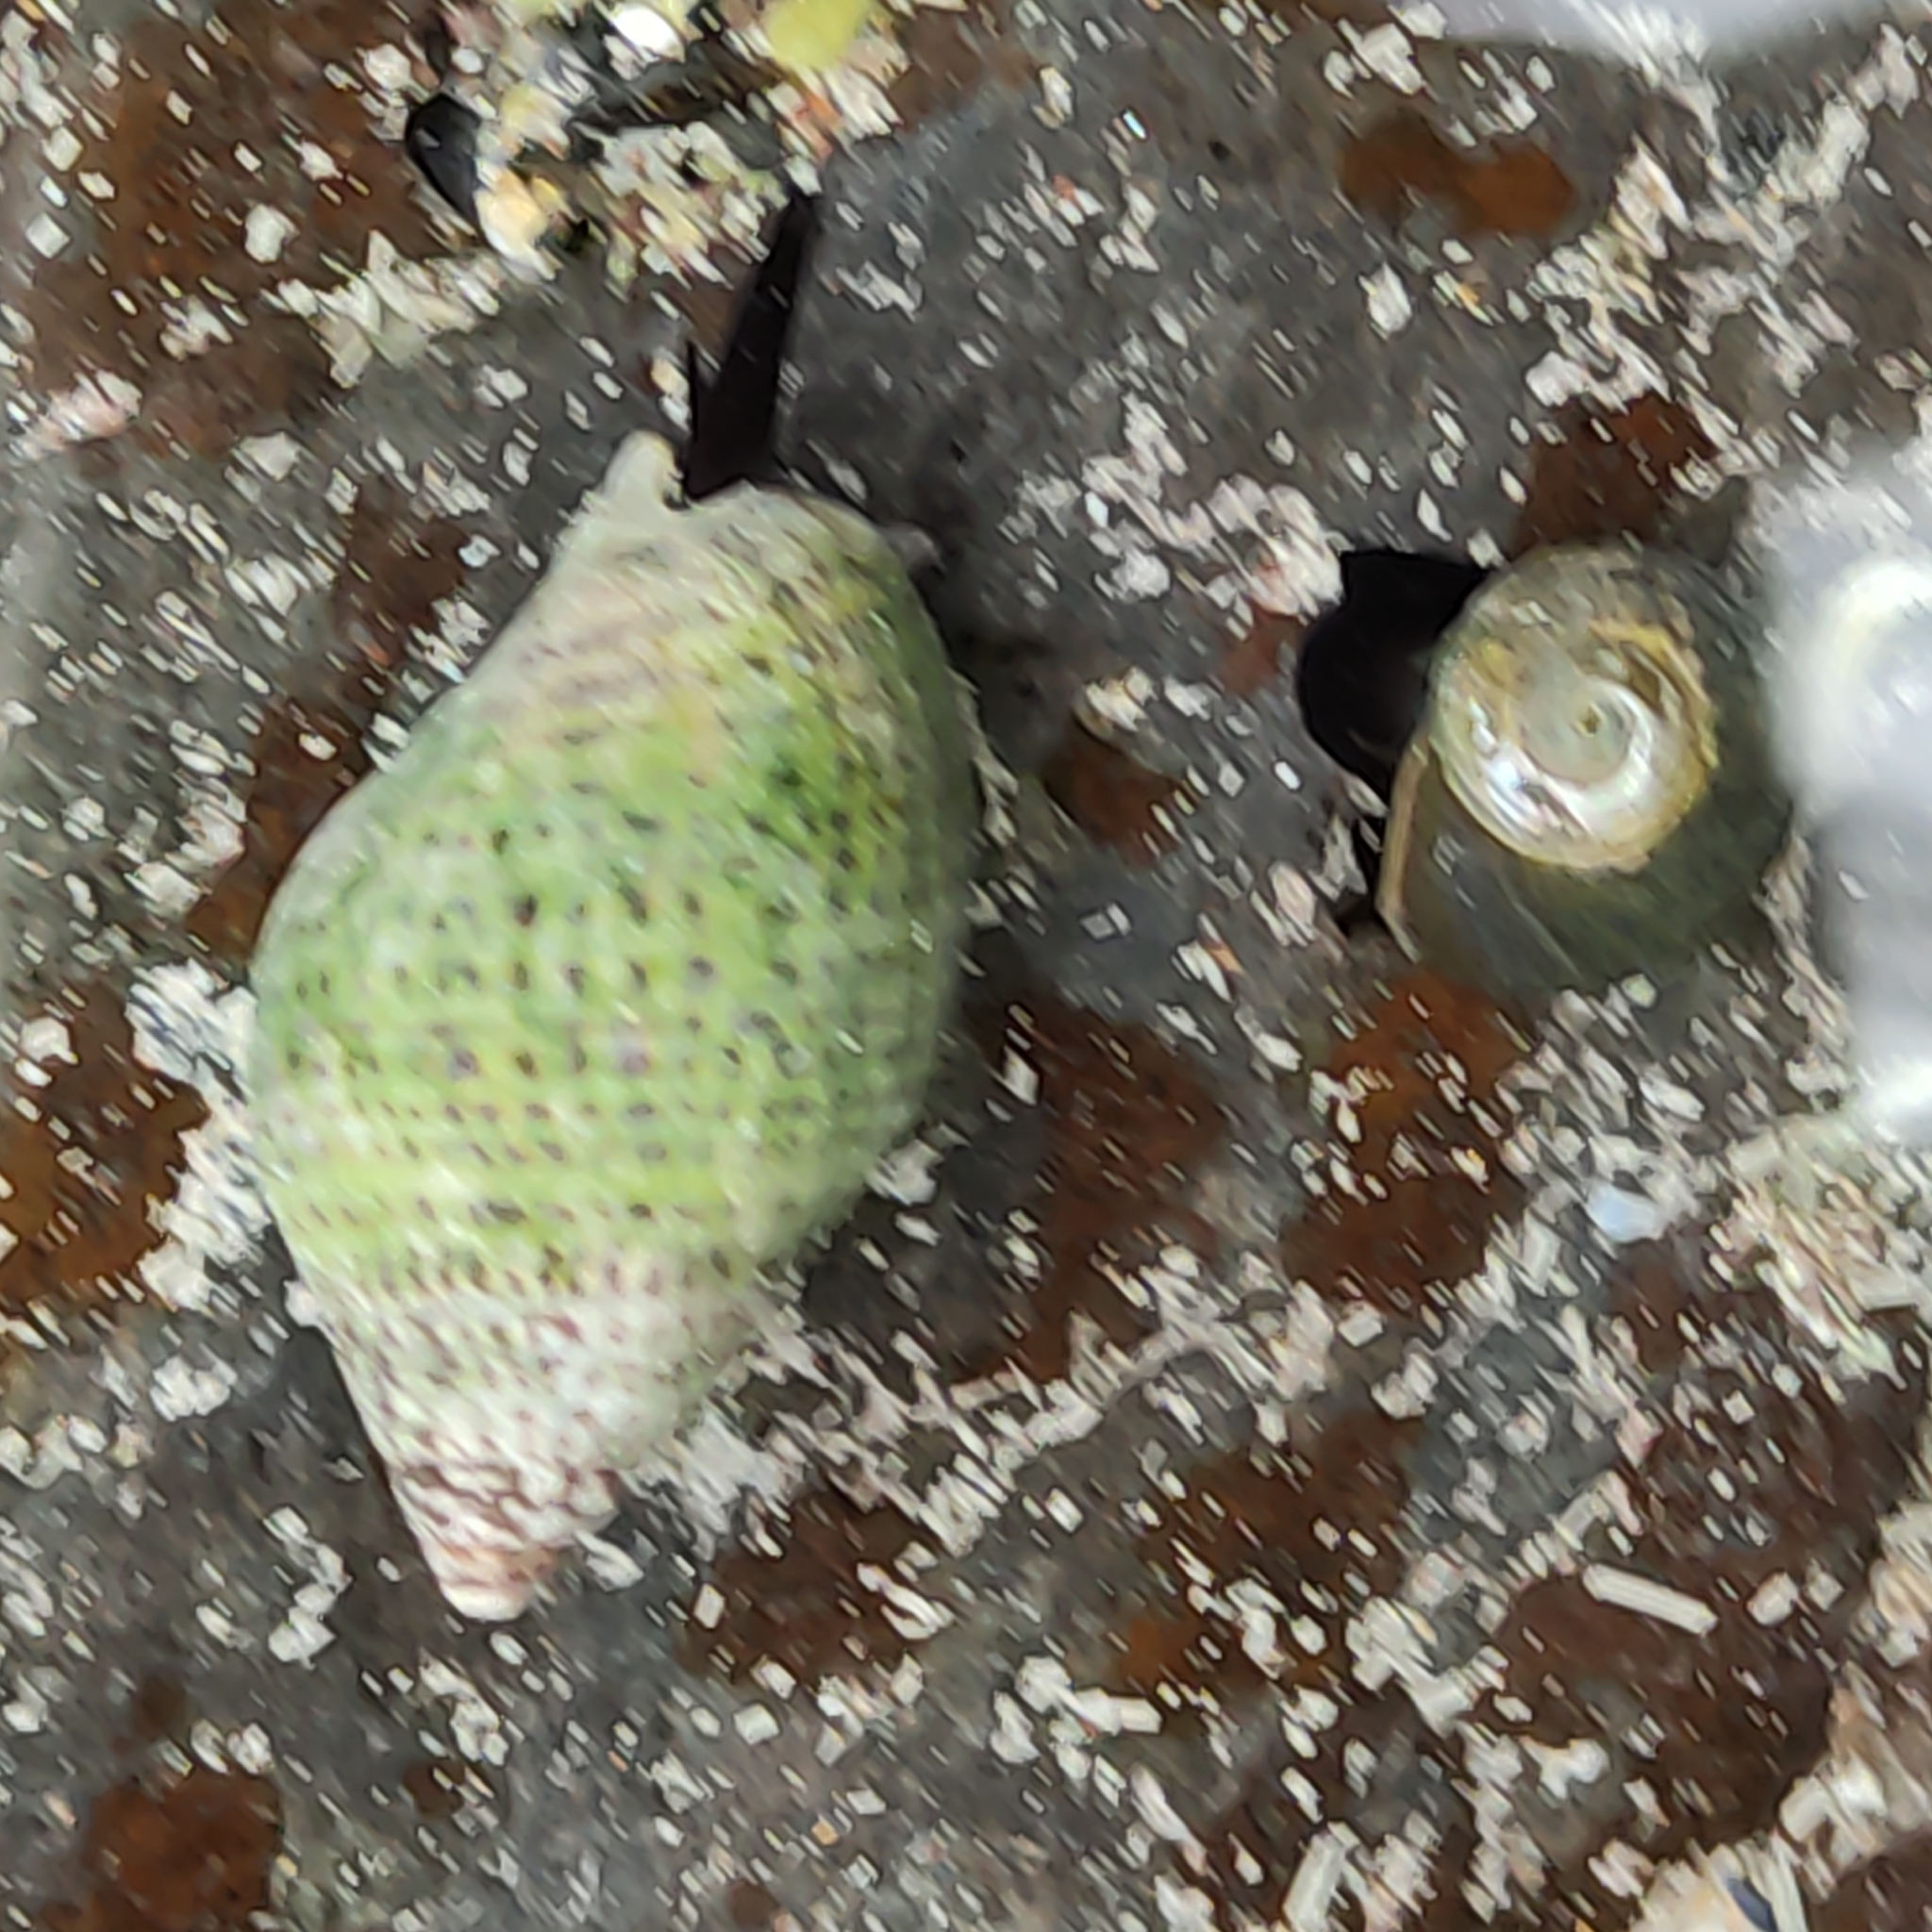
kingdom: Animalia
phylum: Mollusca
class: Gastropoda
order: Neogastropoda
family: Cominellidae
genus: Cominella
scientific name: Cominella maculosa
